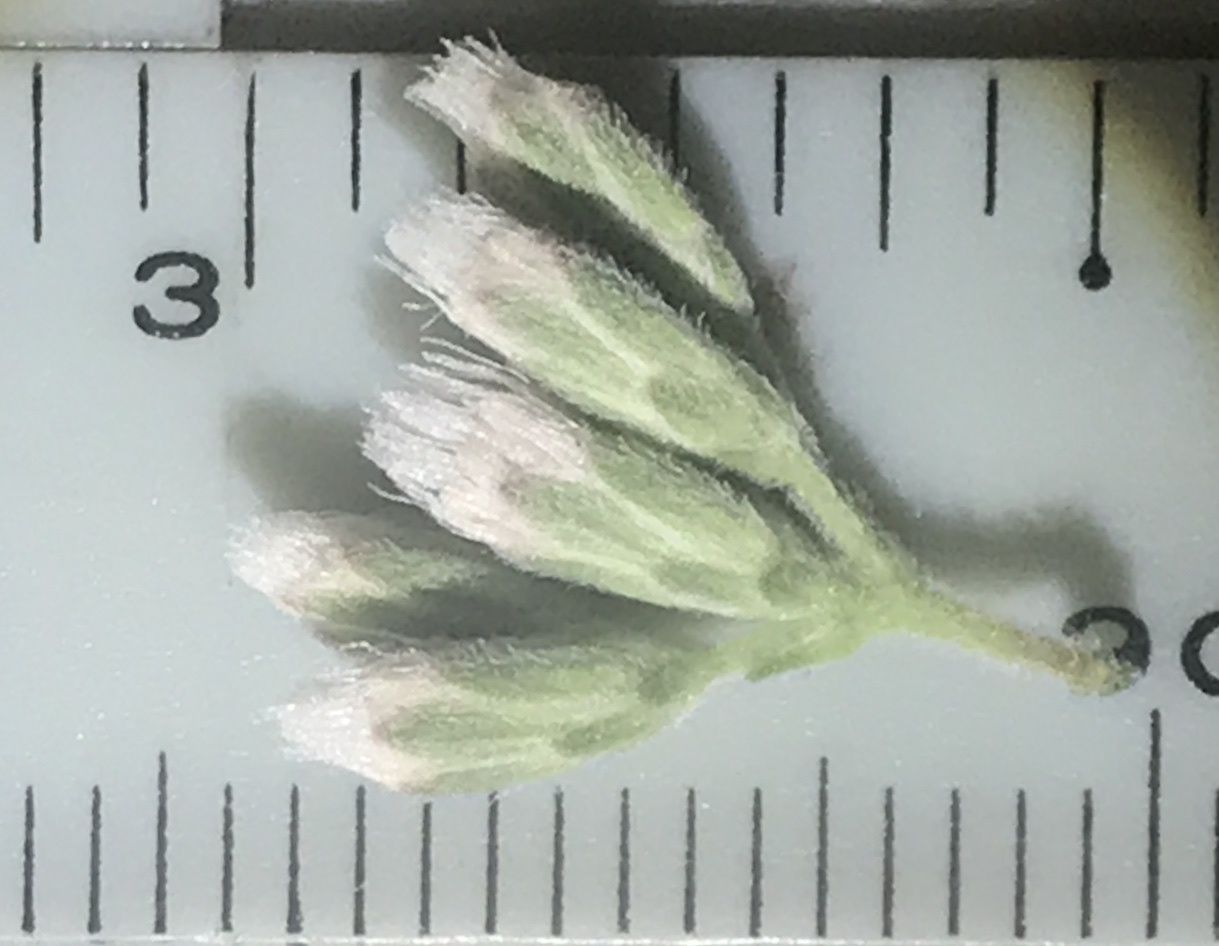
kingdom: Plantae
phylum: Tracheophyta
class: Magnoliopsida
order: Asterales
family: Asteraceae
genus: Eupatorium
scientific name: Eupatorium altissimum
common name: Tall thoroughwort
